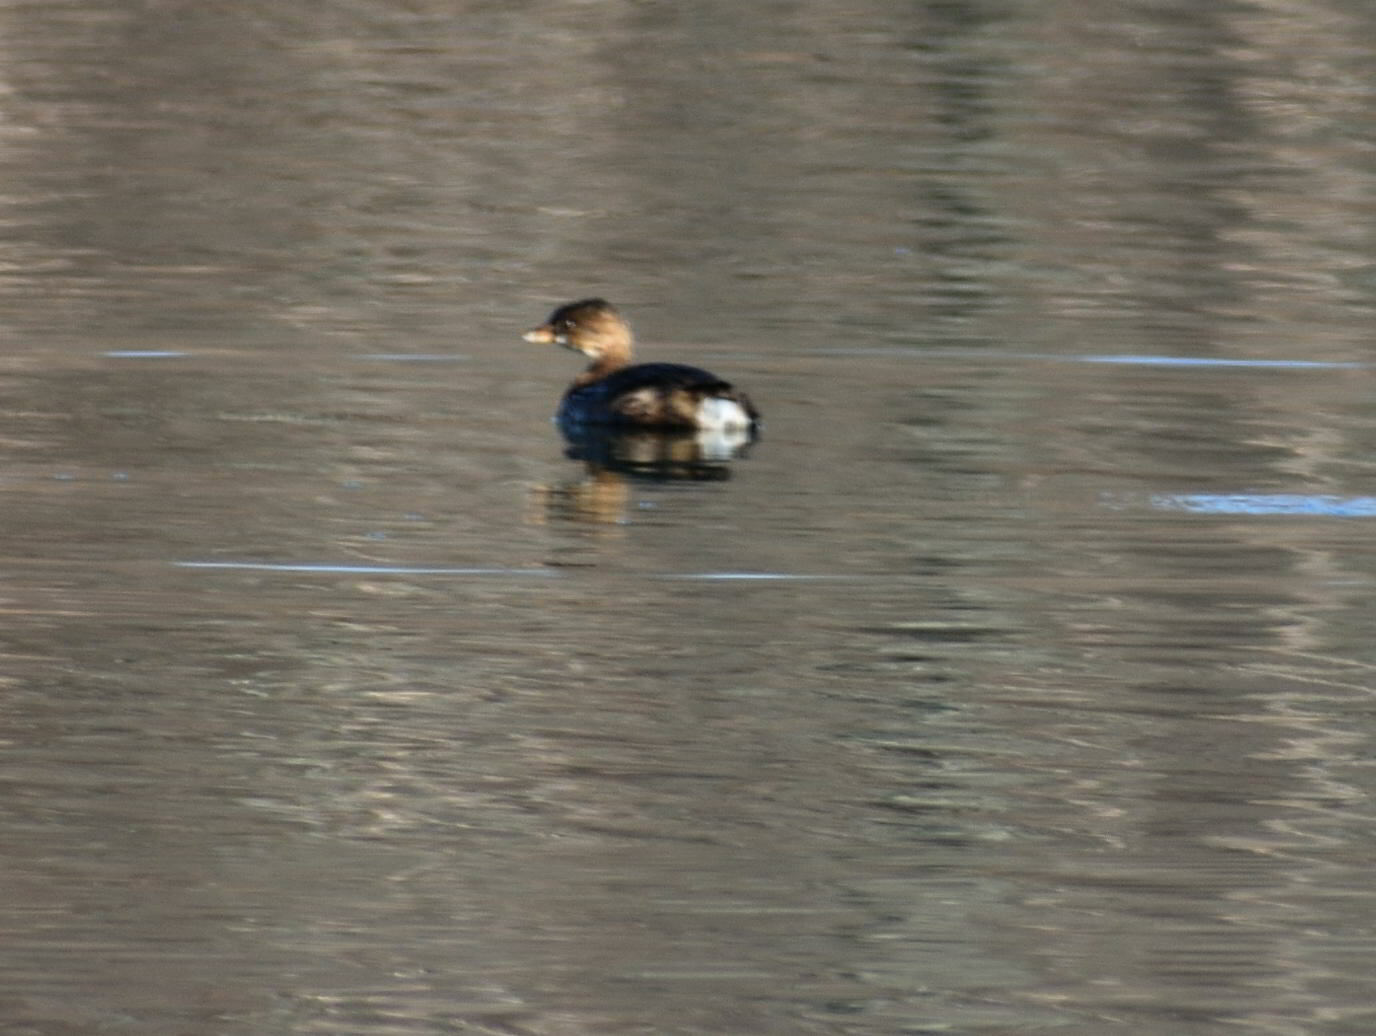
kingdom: Animalia
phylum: Chordata
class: Aves
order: Podicipediformes
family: Podicipedidae
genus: Podilymbus
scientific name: Podilymbus podiceps
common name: Pied-billed grebe
